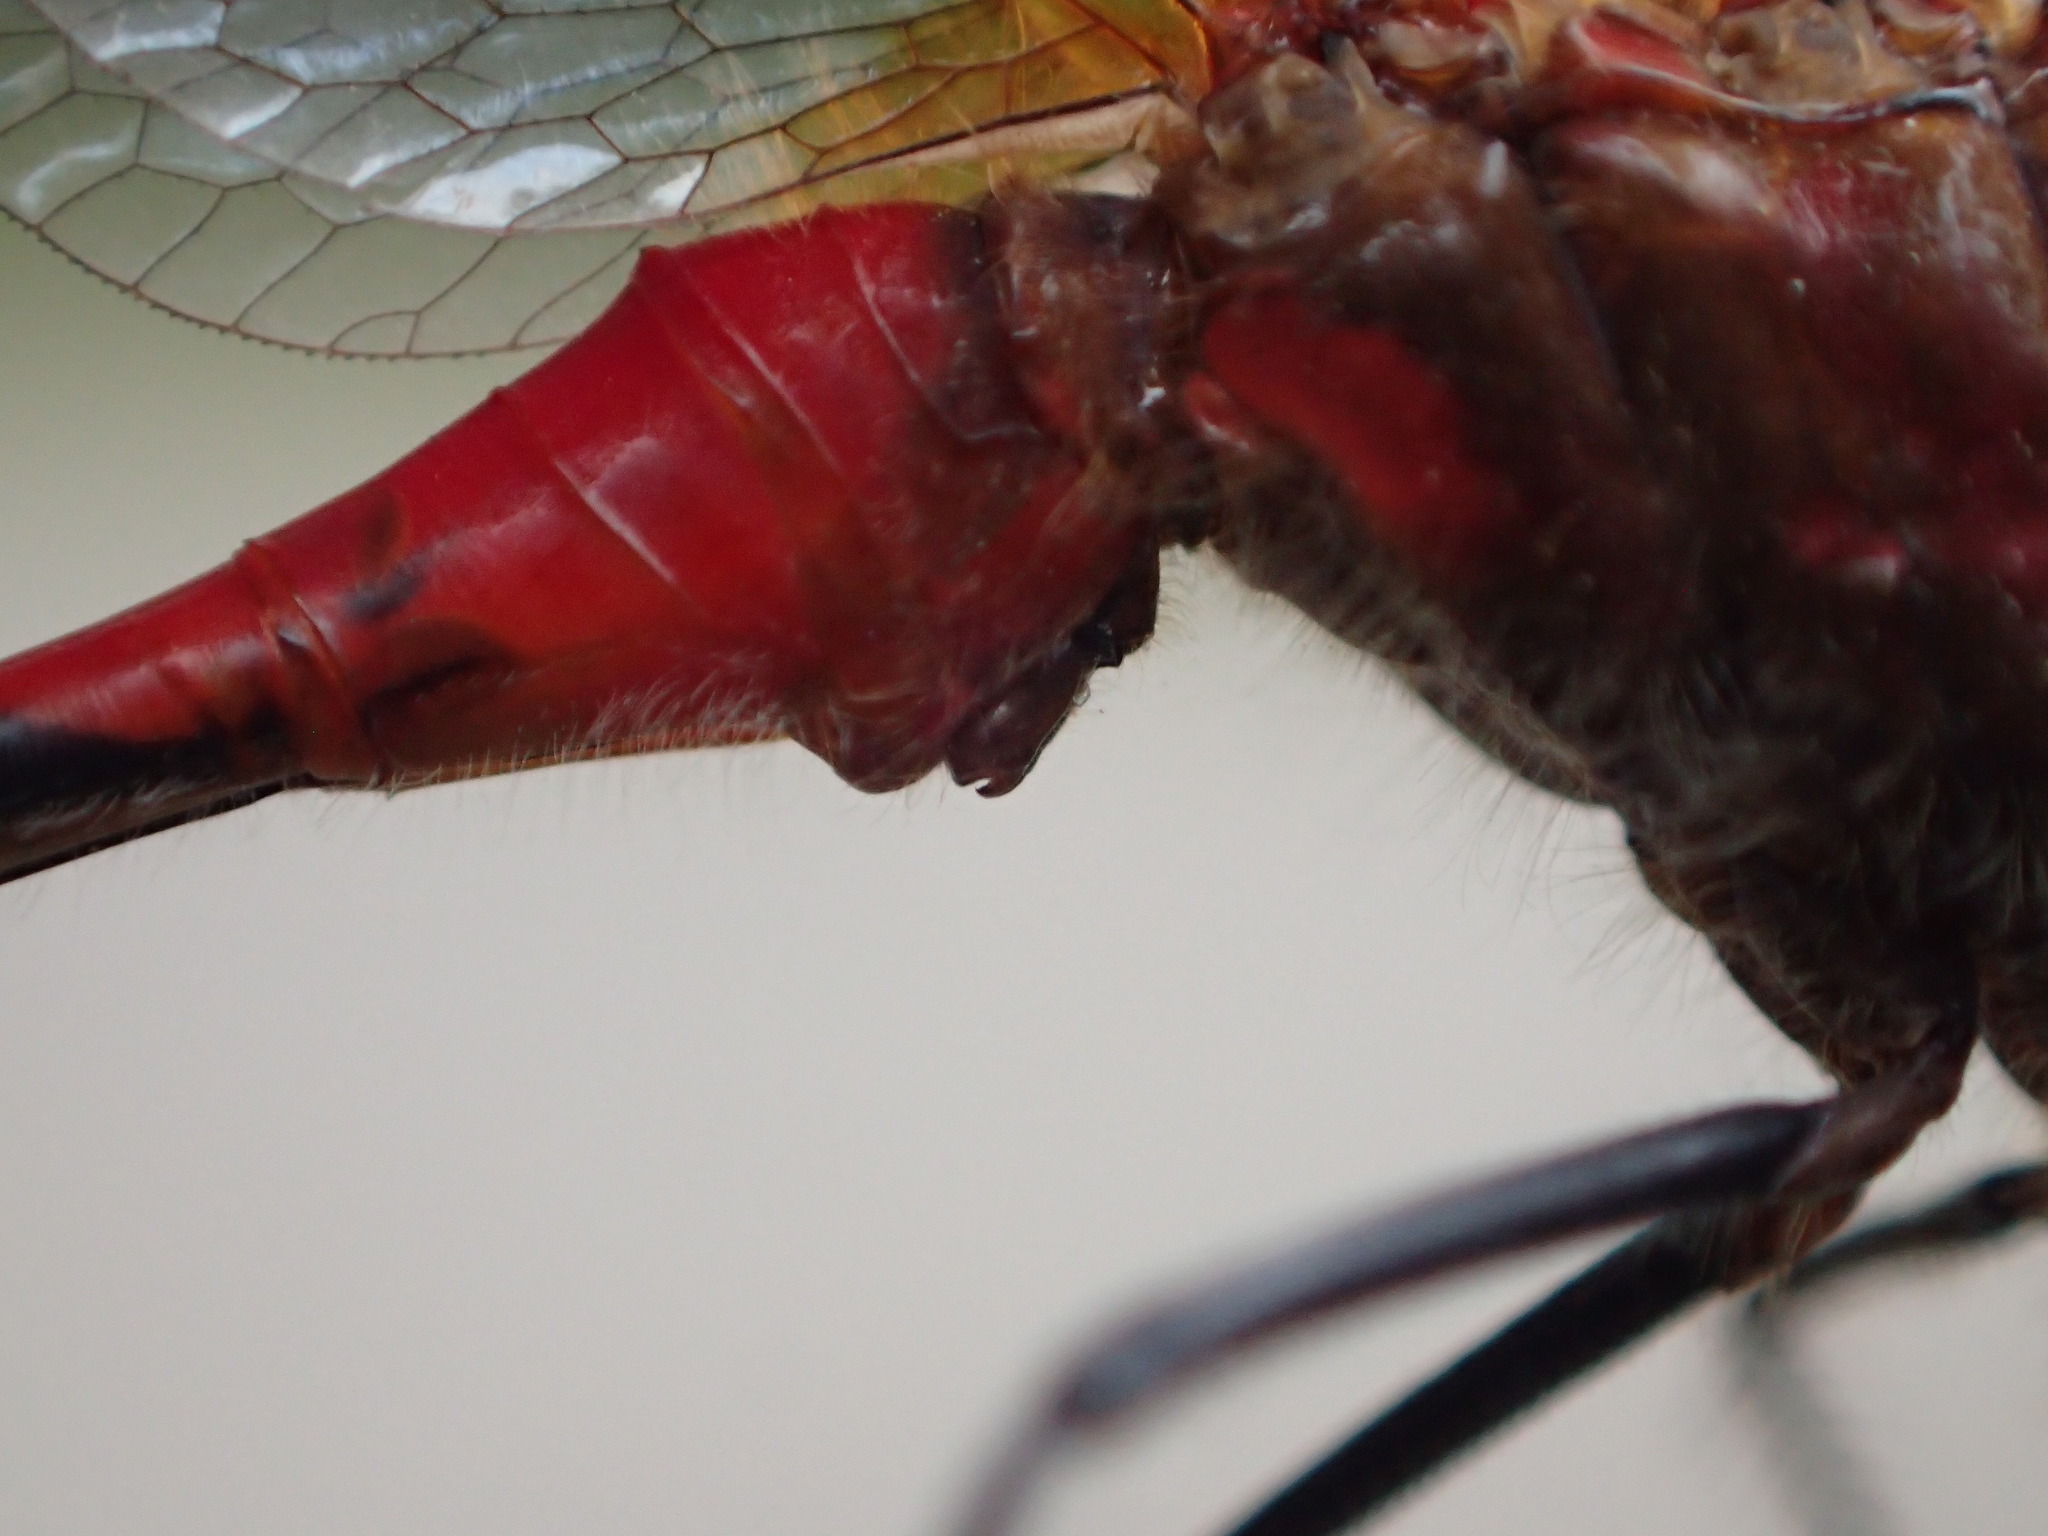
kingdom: Animalia
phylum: Arthropoda
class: Insecta
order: Odonata
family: Libellulidae
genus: Sympetrum
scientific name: Sympetrum obtrusum
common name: White-faced meadowhawk
